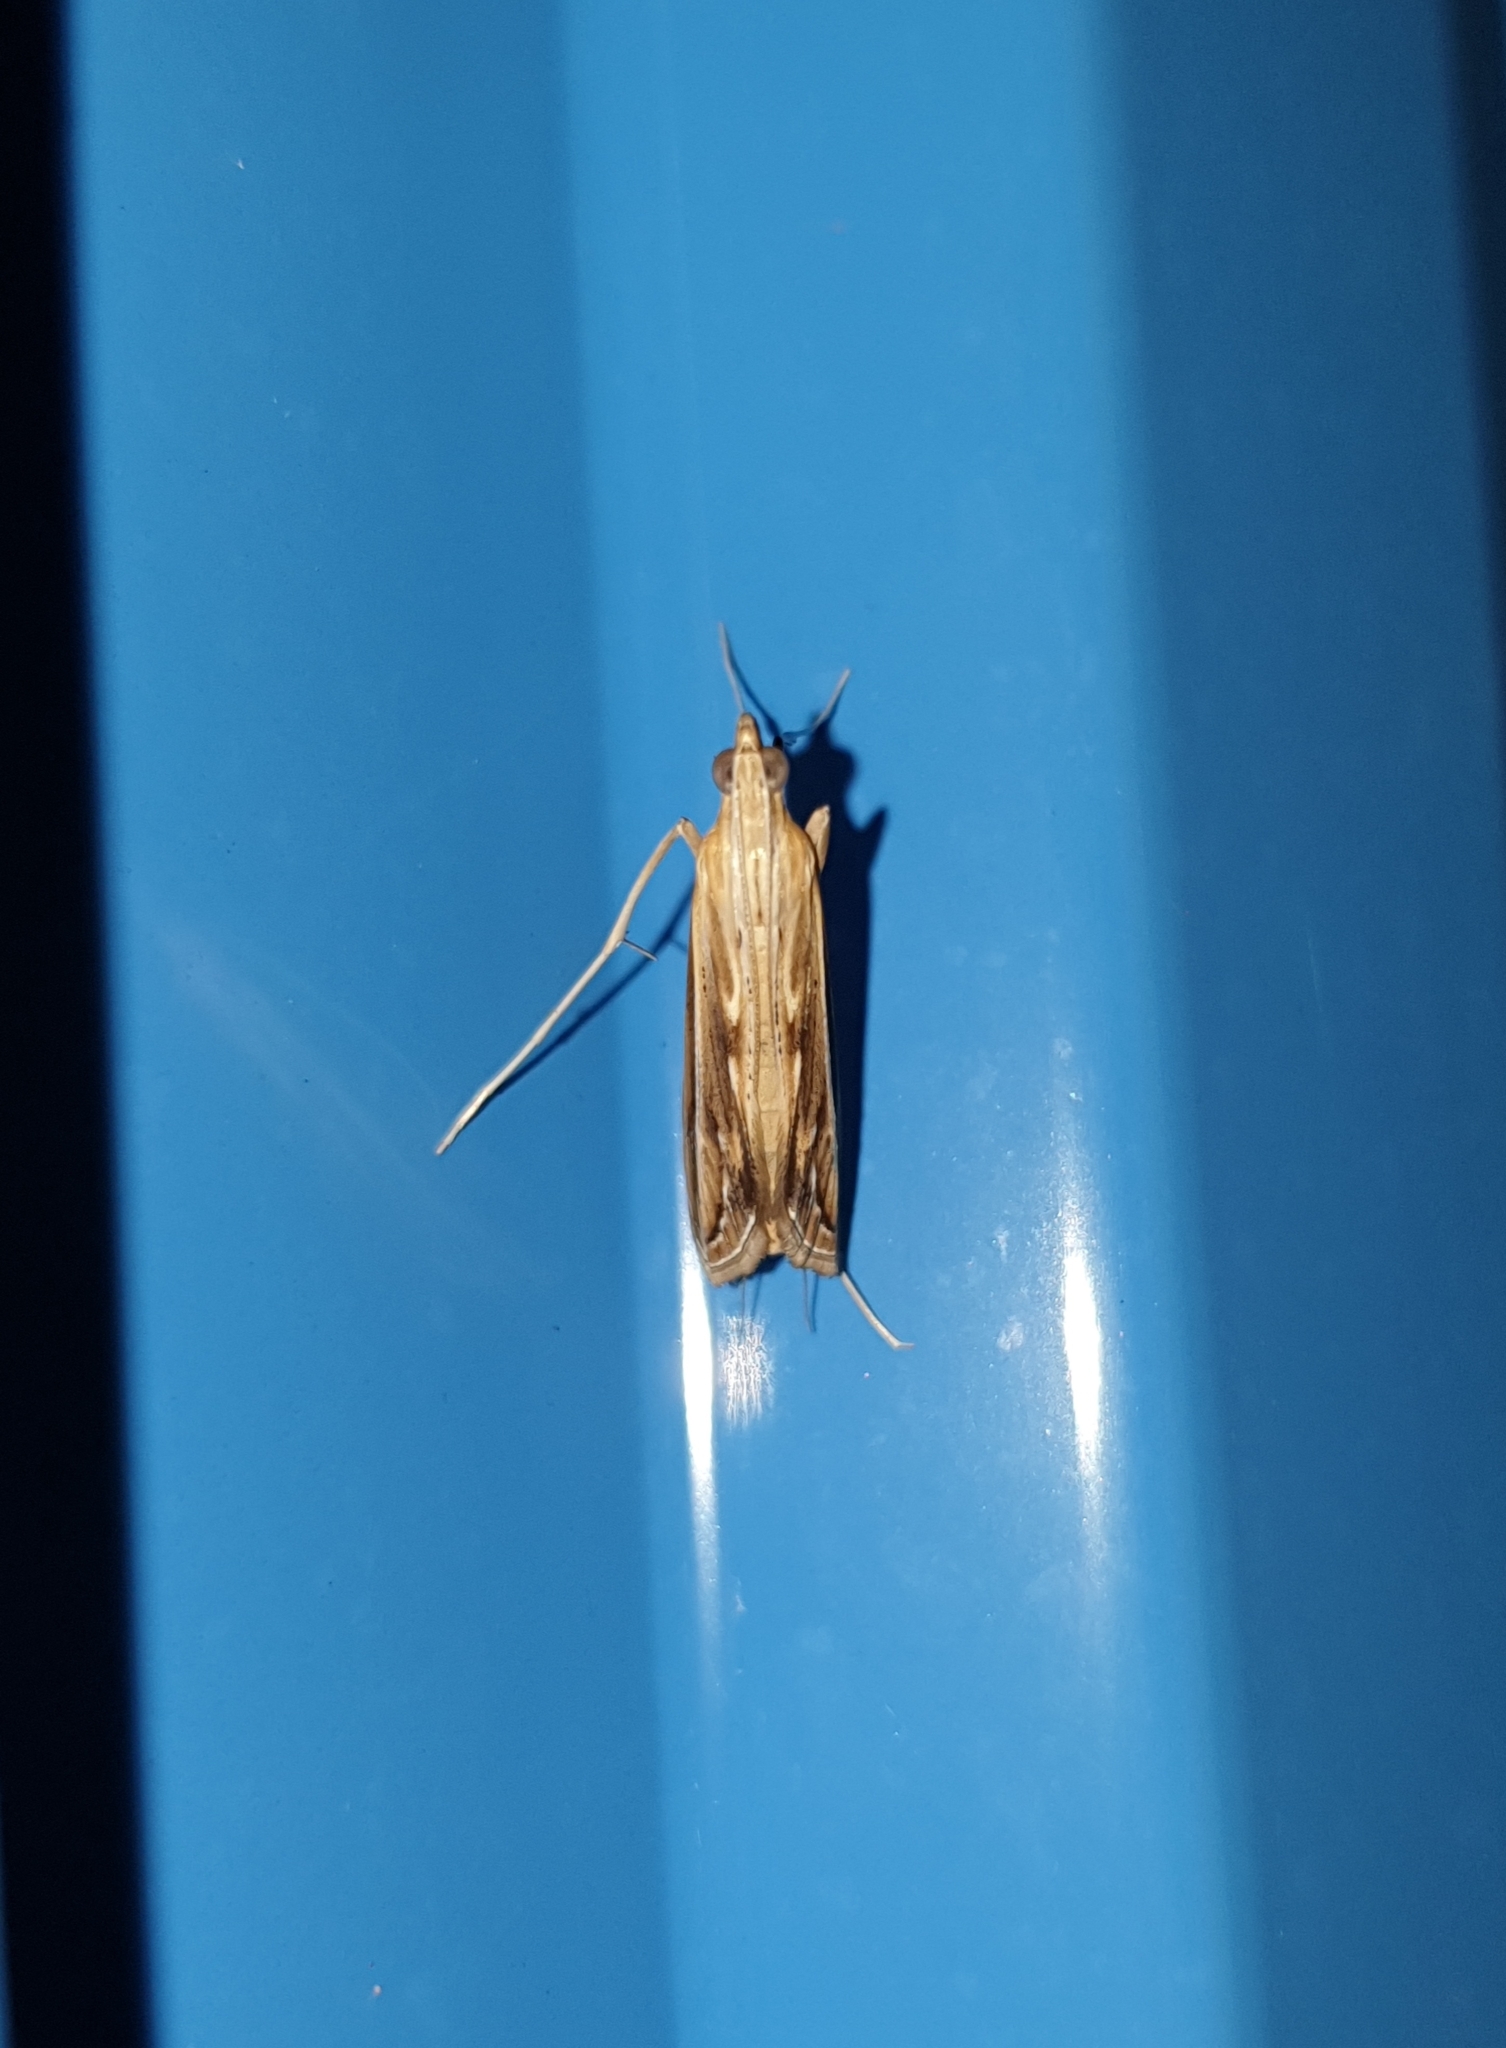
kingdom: Animalia
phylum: Arthropoda
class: Insecta
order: Lepidoptera
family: Crambidae
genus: Euclasta
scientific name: Euclasta
